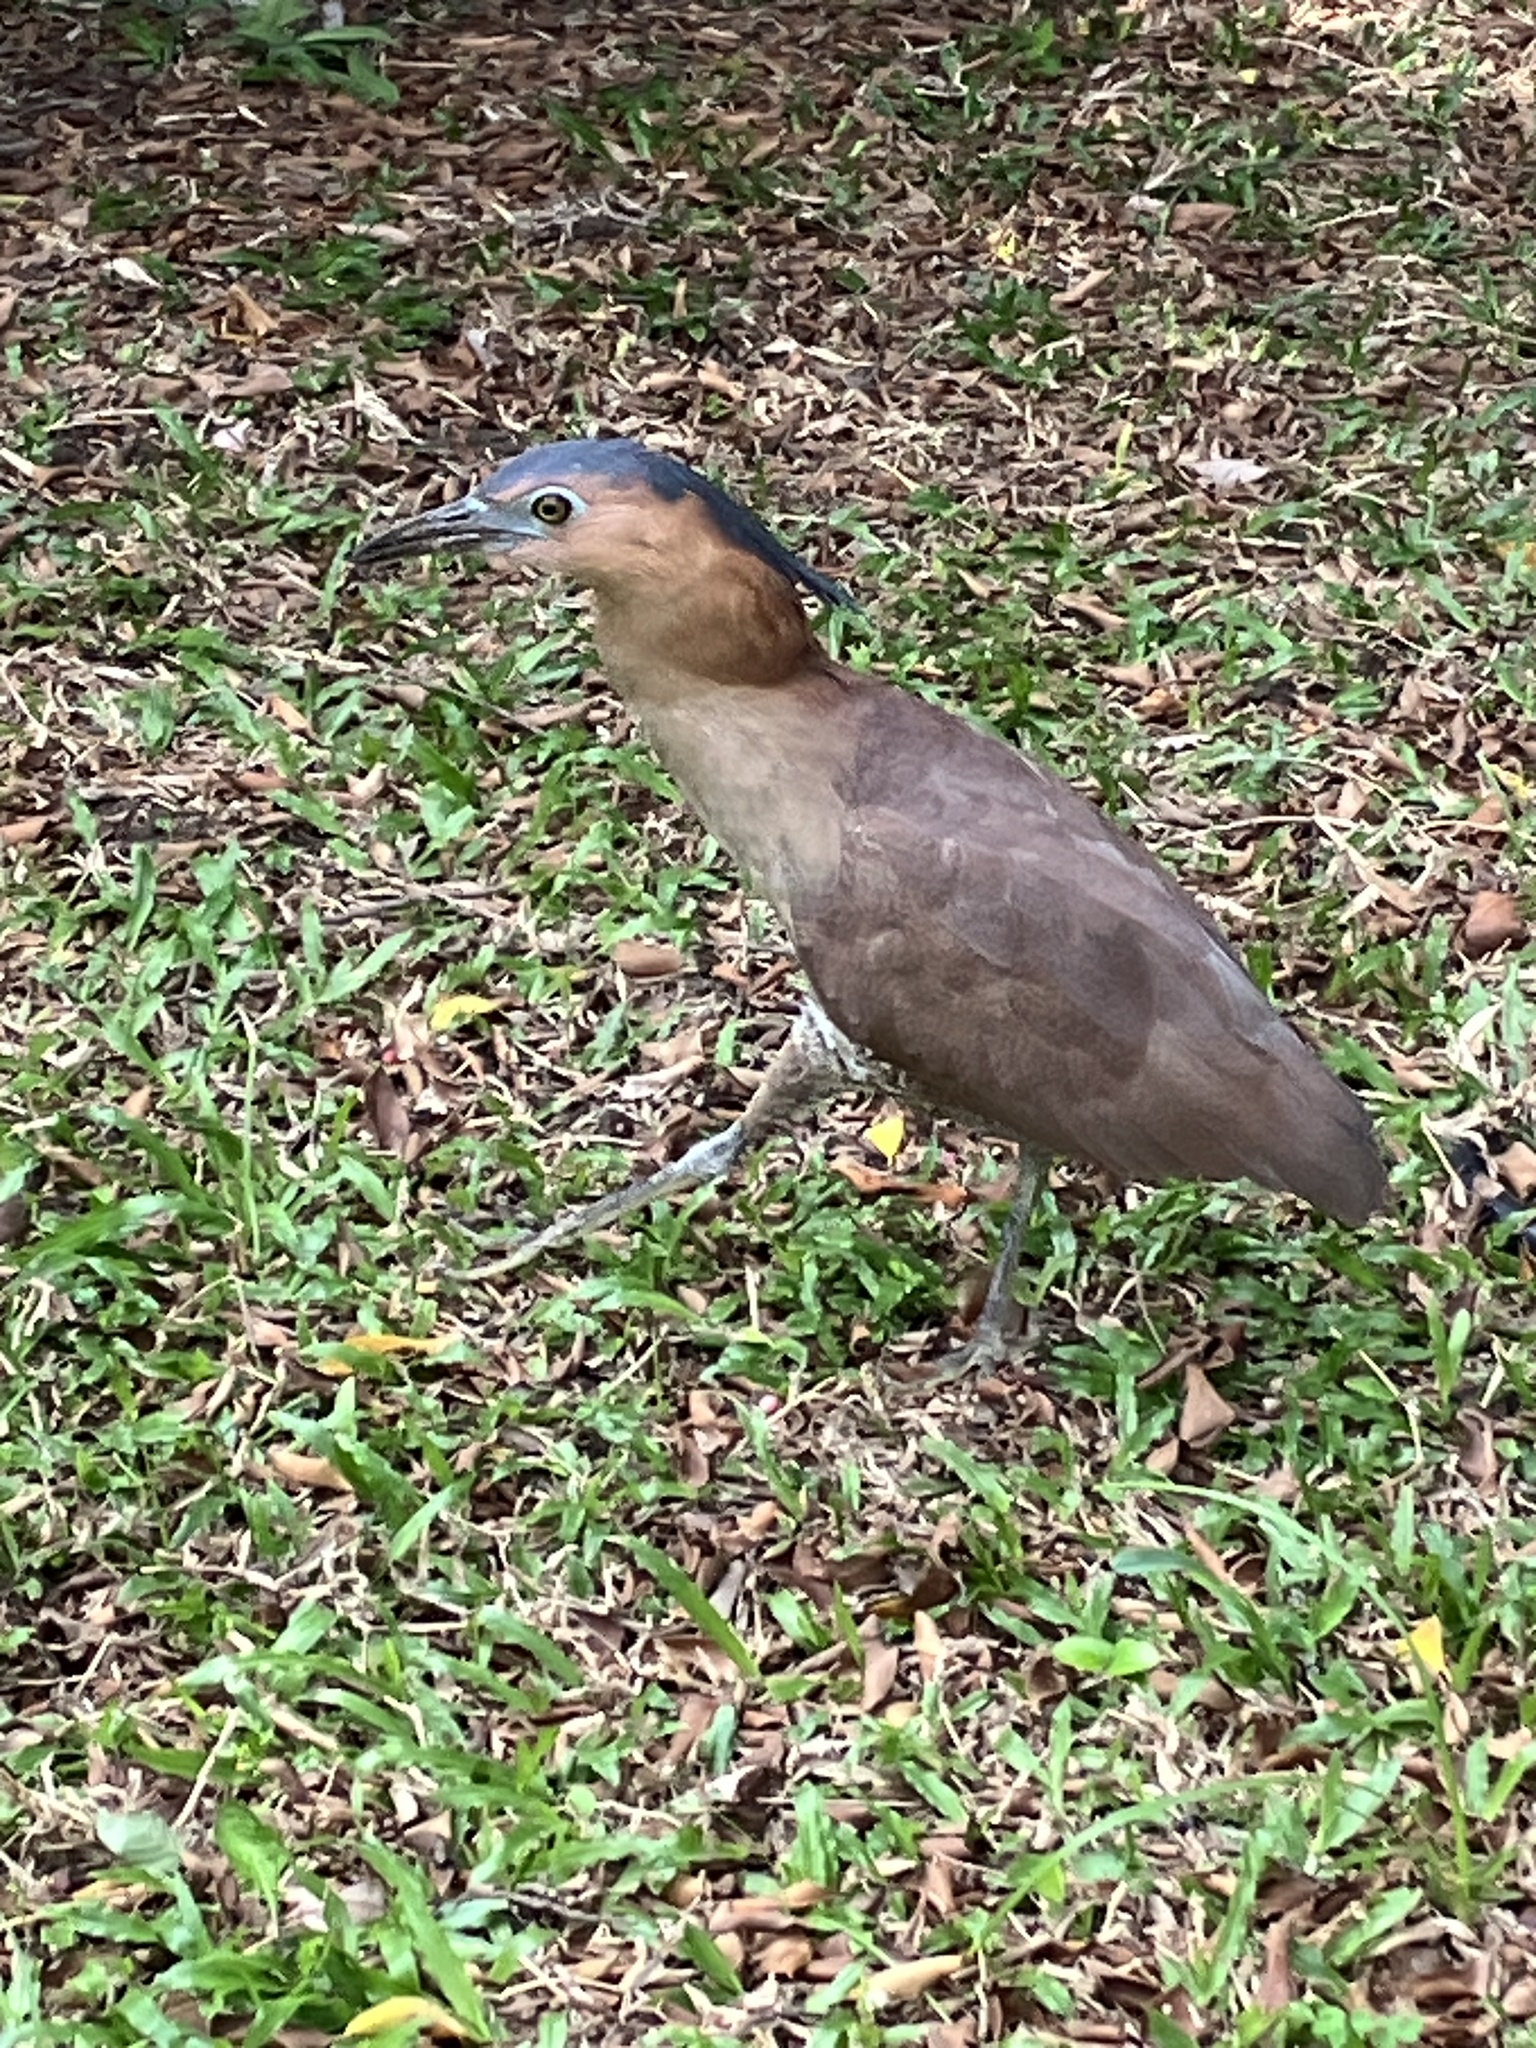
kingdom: Animalia
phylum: Chordata
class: Aves
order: Pelecaniformes
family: Ardeidae
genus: Gorsachius
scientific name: Gorsachius melanolophus
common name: Malayan night heron
